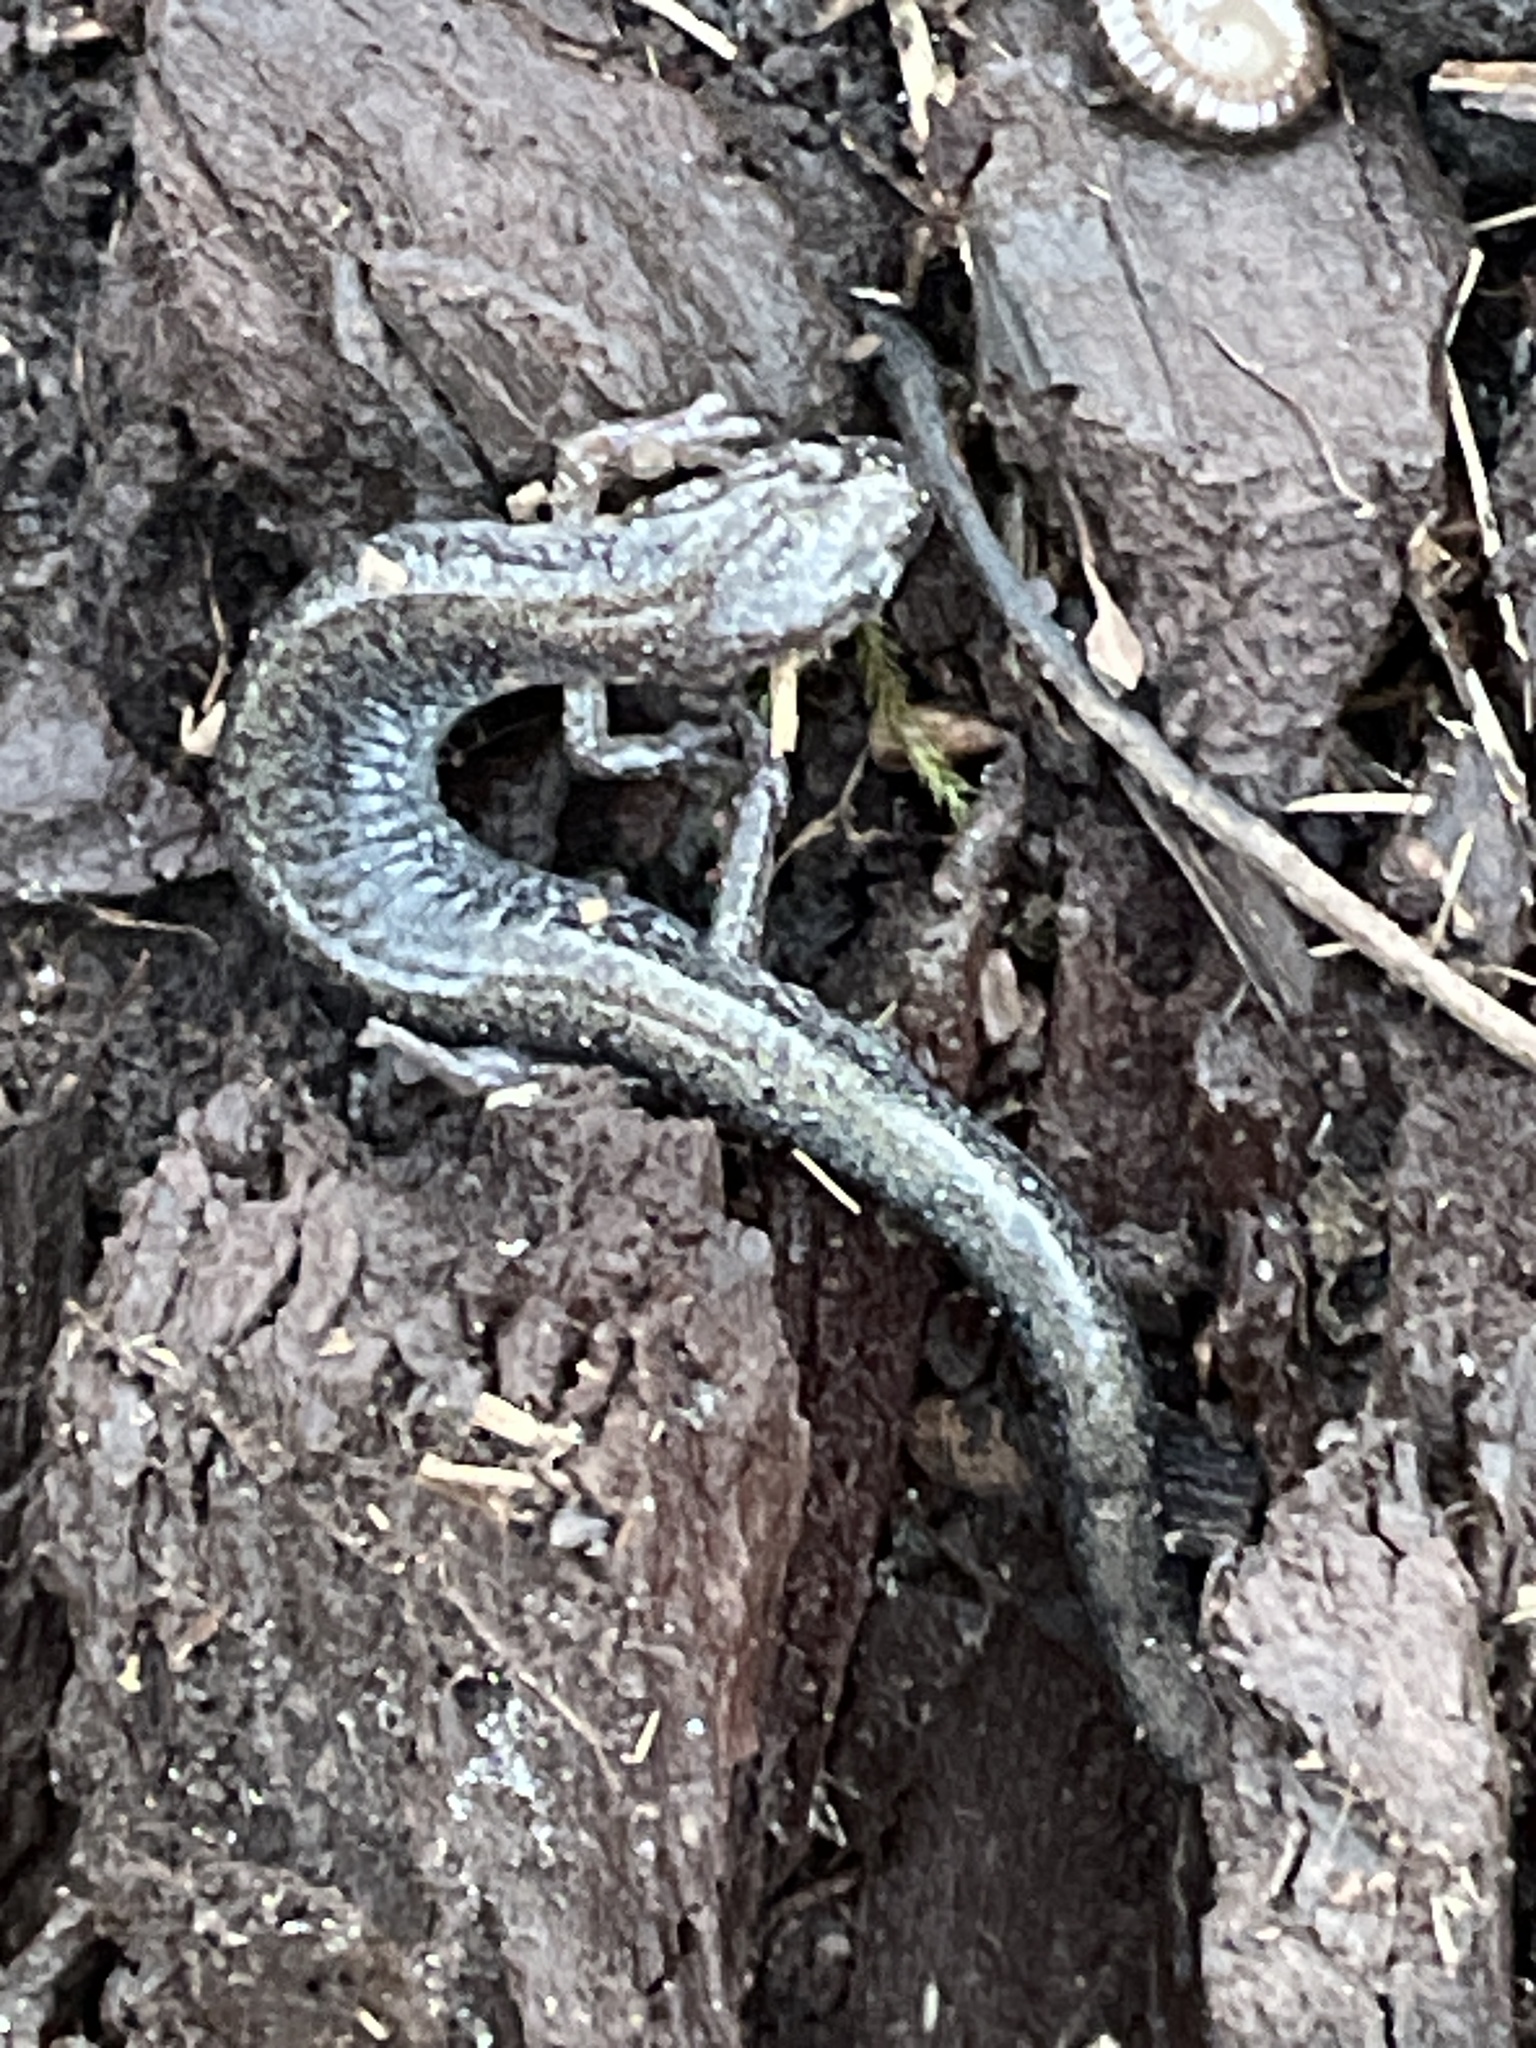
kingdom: Animalia
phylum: Chordata
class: Amphibia
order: Caudata
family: Plethodontidae
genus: Plethodon
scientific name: Plethodon cinereus
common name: Redback salamander
